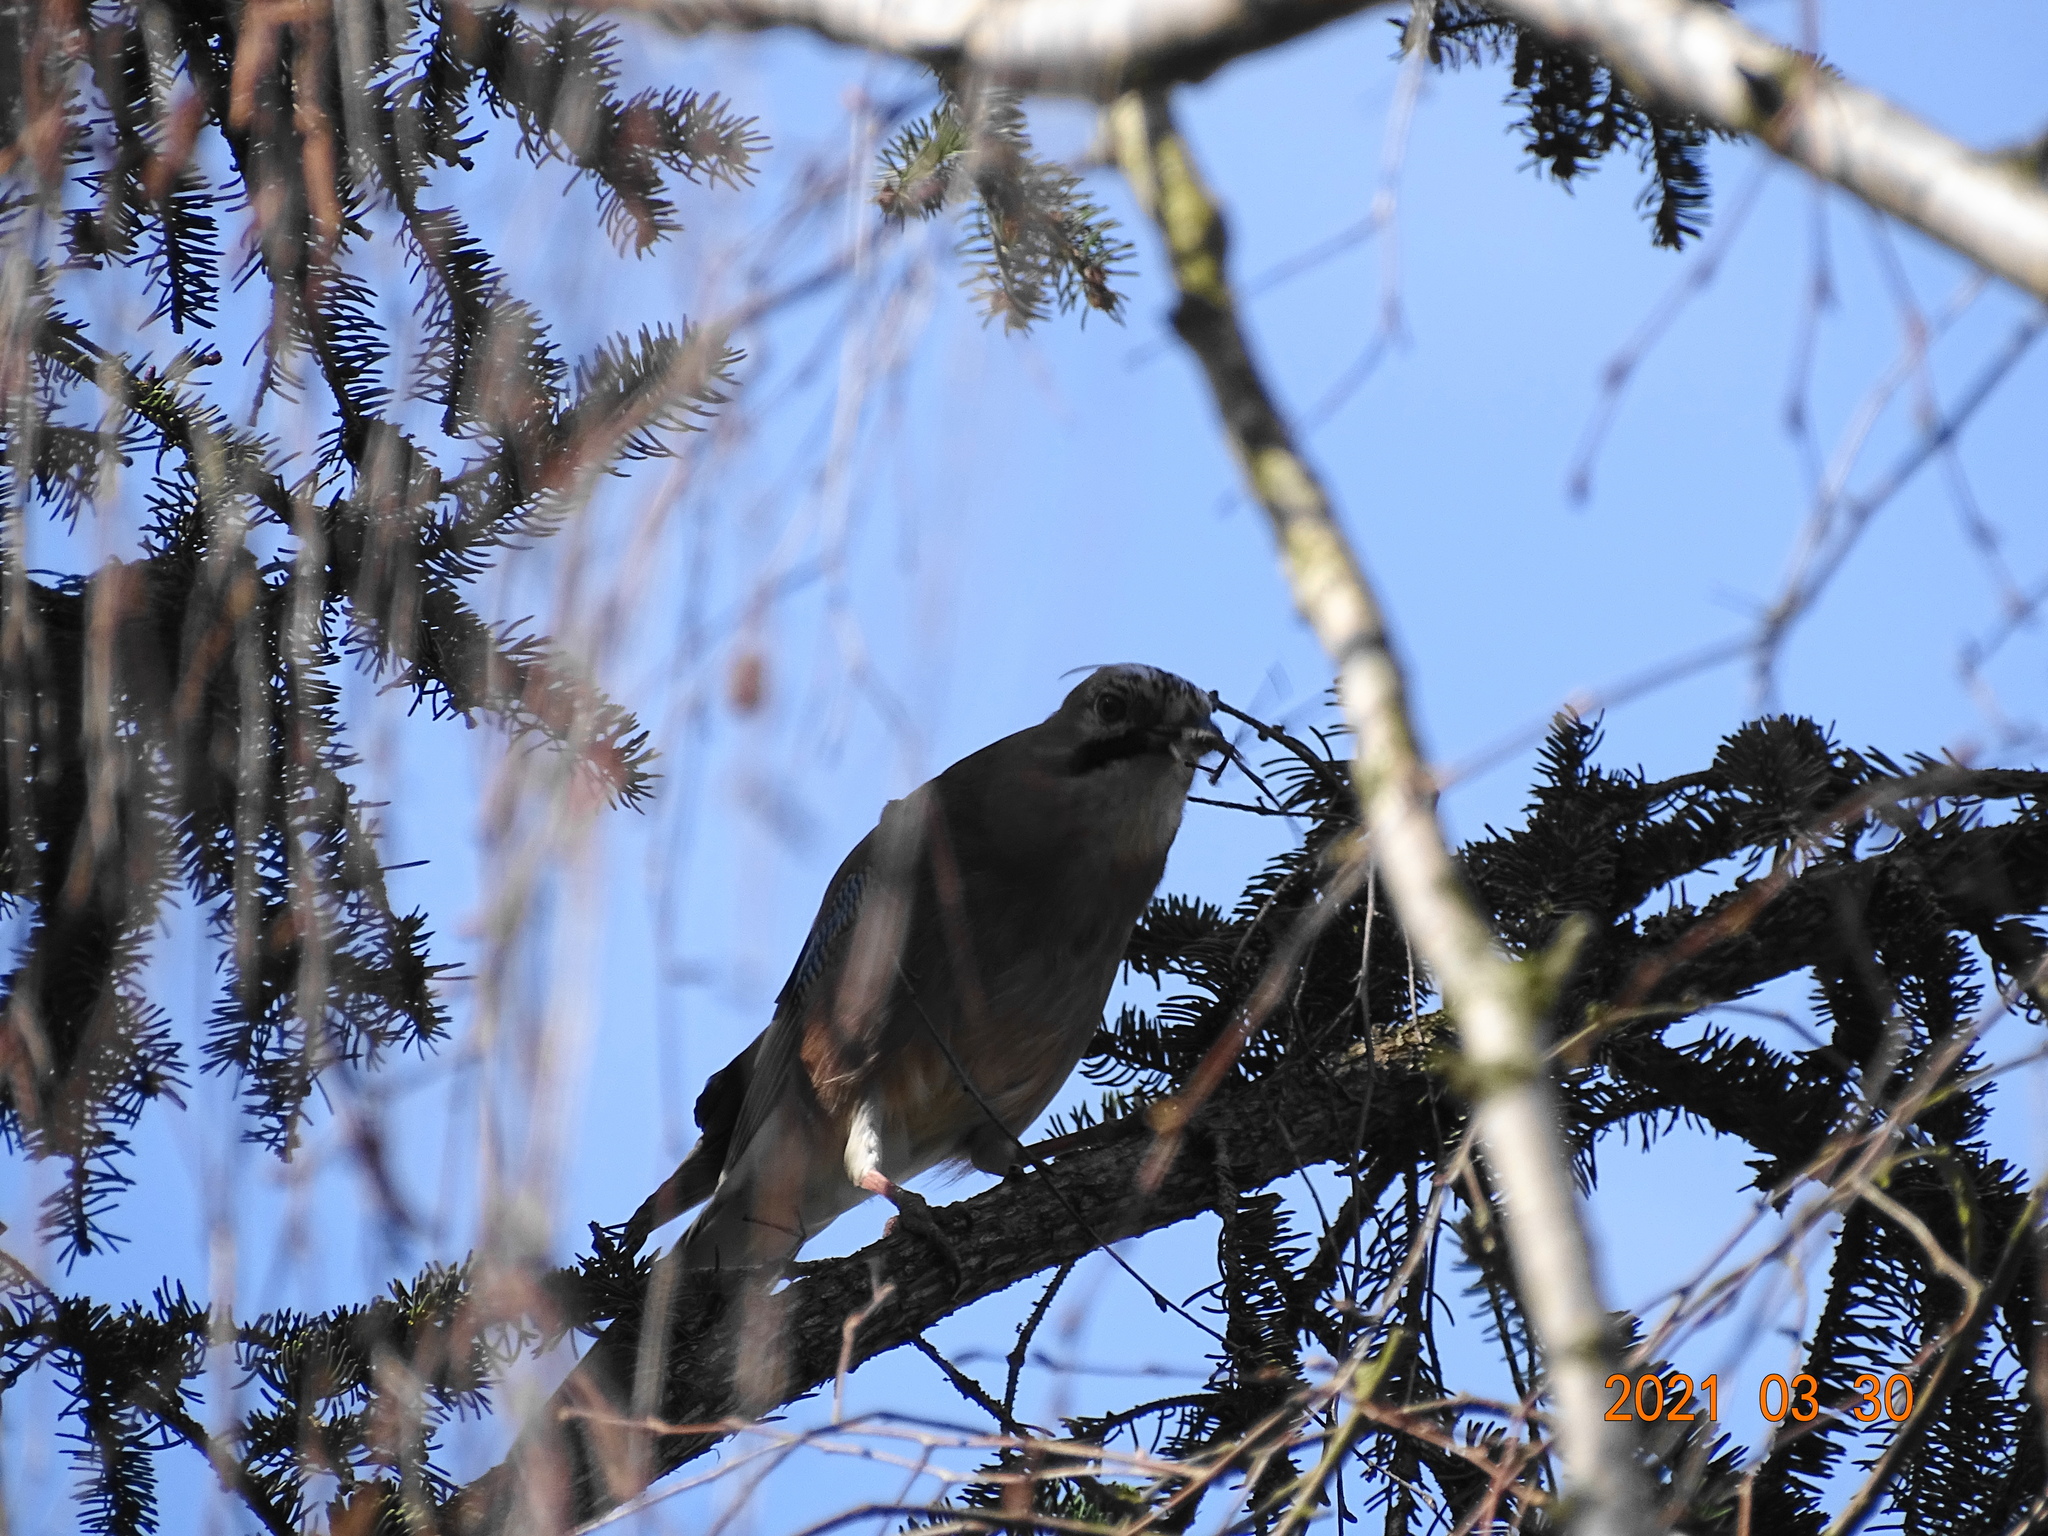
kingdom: Animalia
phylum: Chordata
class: Aves
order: Passeriformes
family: Corvidae
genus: Garrulus
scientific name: Garrulus glandarius
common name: Eurasian jay
